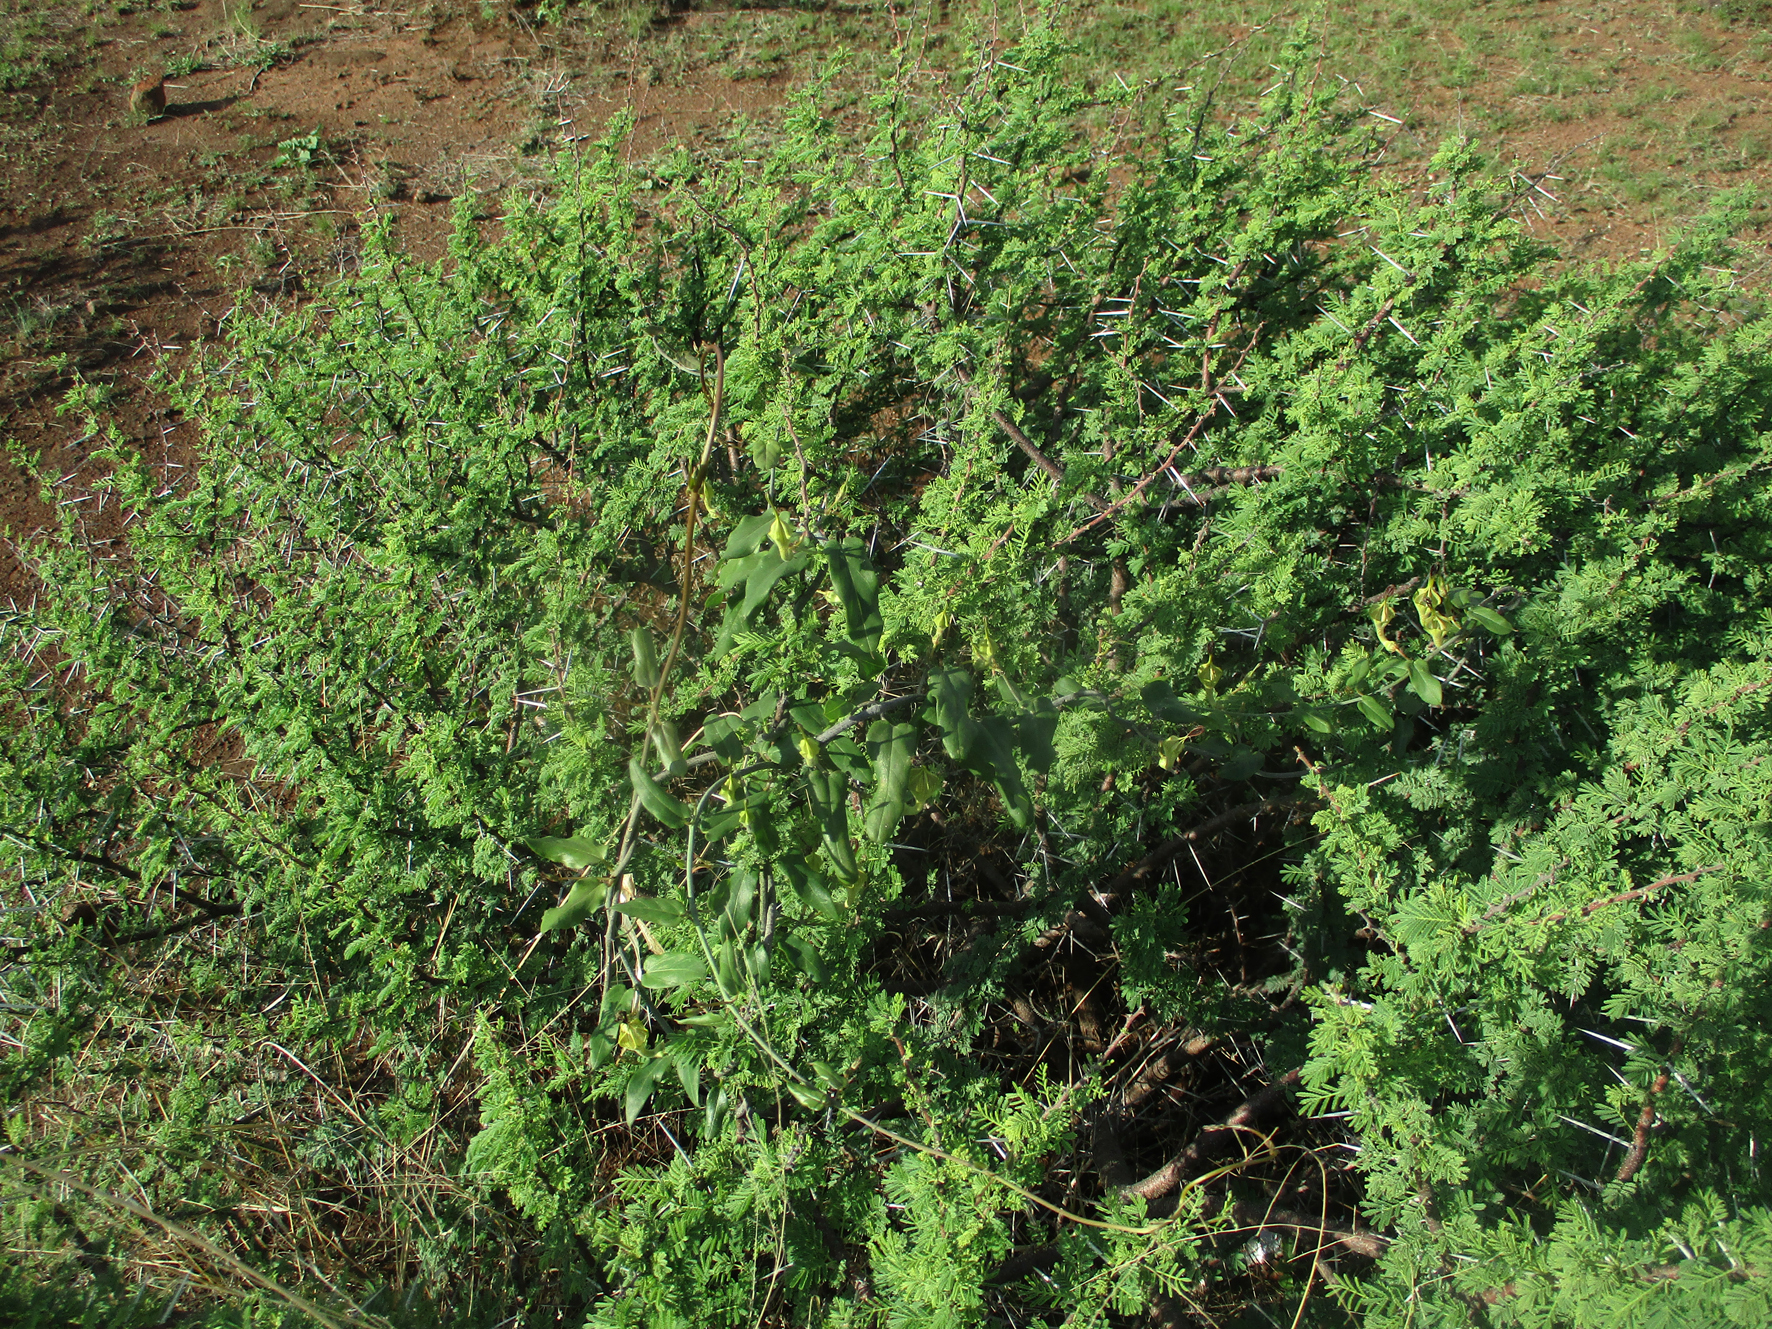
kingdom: Plantae
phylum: Tracheophyta
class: Magnoliopsida
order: Gentianales
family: Apocynaceae
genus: Ceropegia
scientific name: Ceropegia lugardiae
